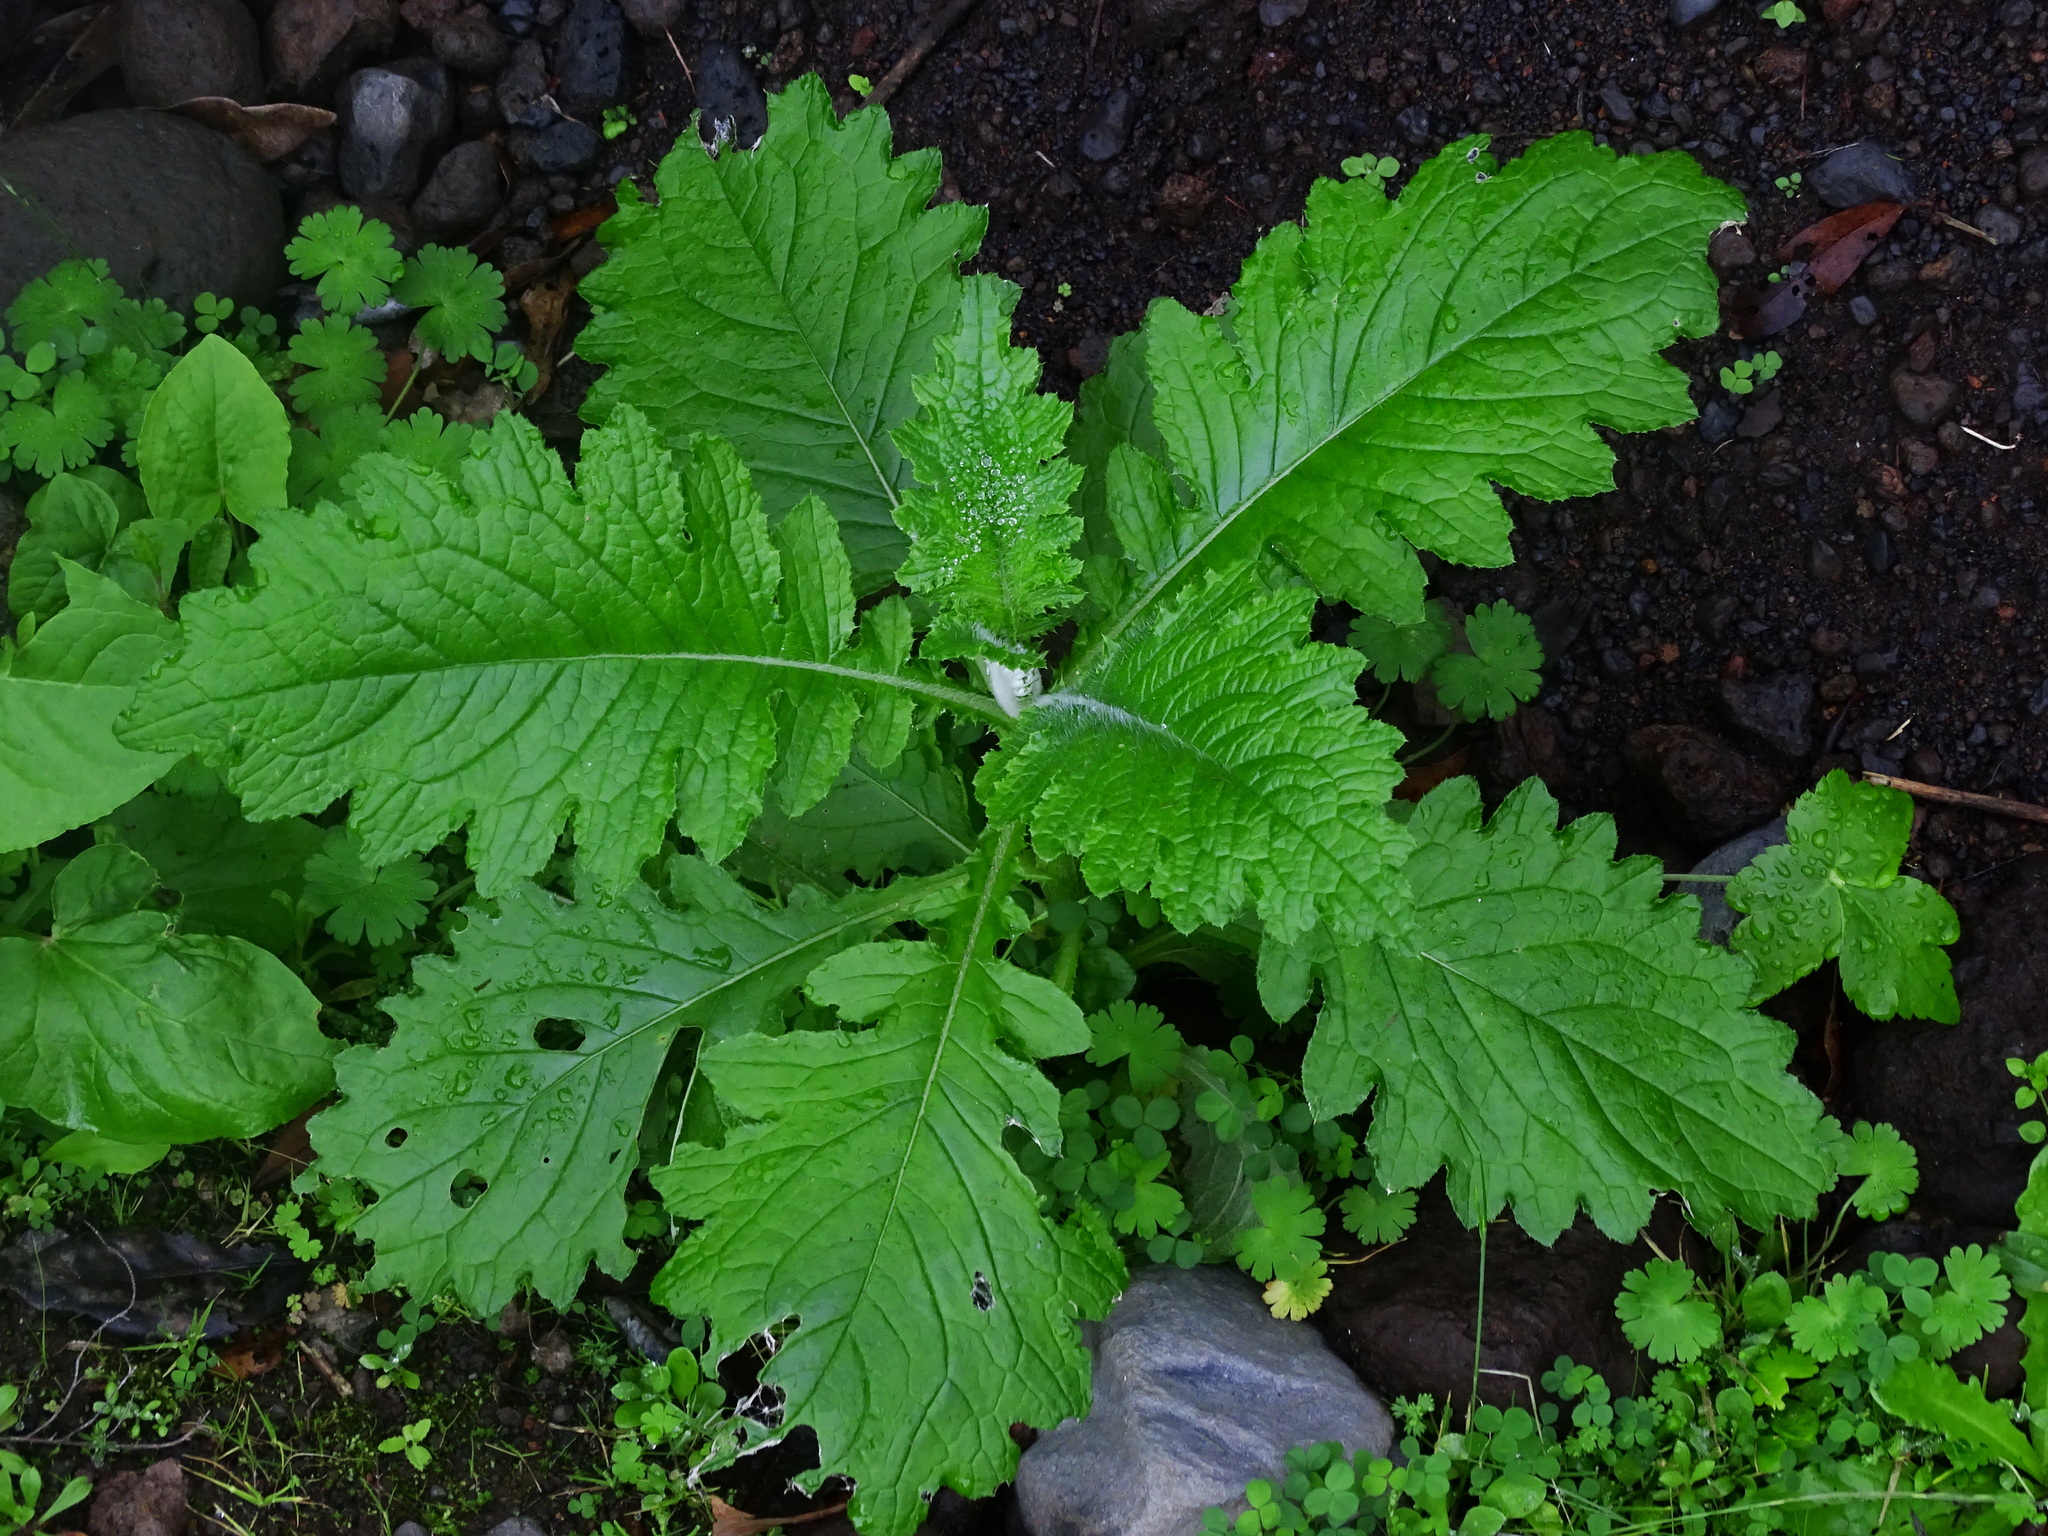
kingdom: Plantae
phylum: Tracheophyta
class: Magnoliopsida
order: Asterales
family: Asteraceae
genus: Carduus
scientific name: Carduus clavulatus
